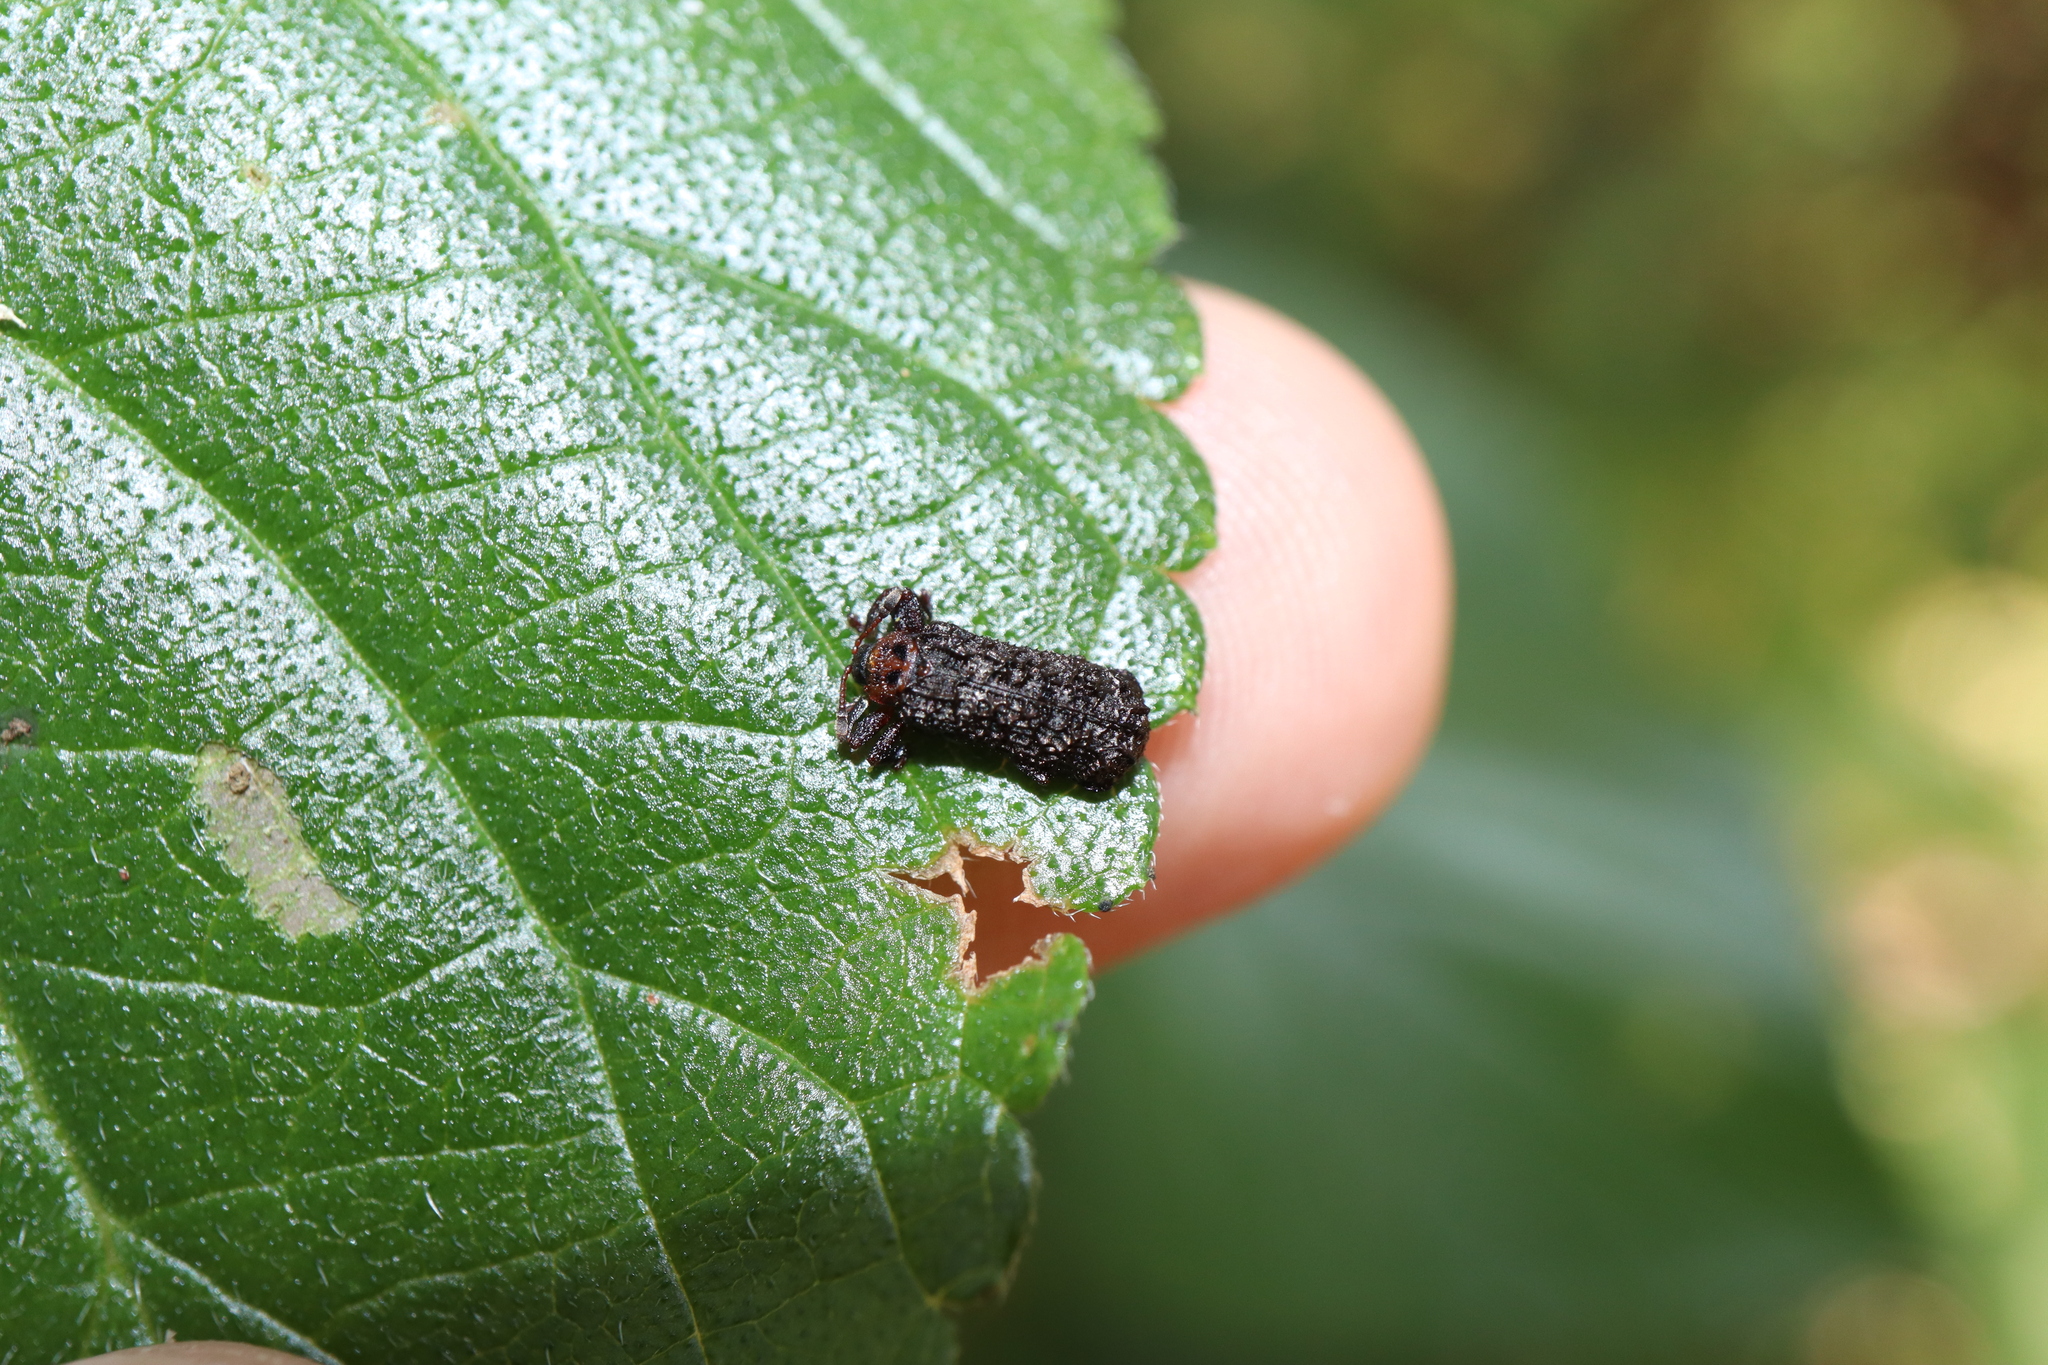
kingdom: Animalia
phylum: Arthropoda
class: Insecta
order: Coleoptera
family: Chrysomelidae
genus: Octotoma
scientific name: Octotoma scabripennis
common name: Beetle
